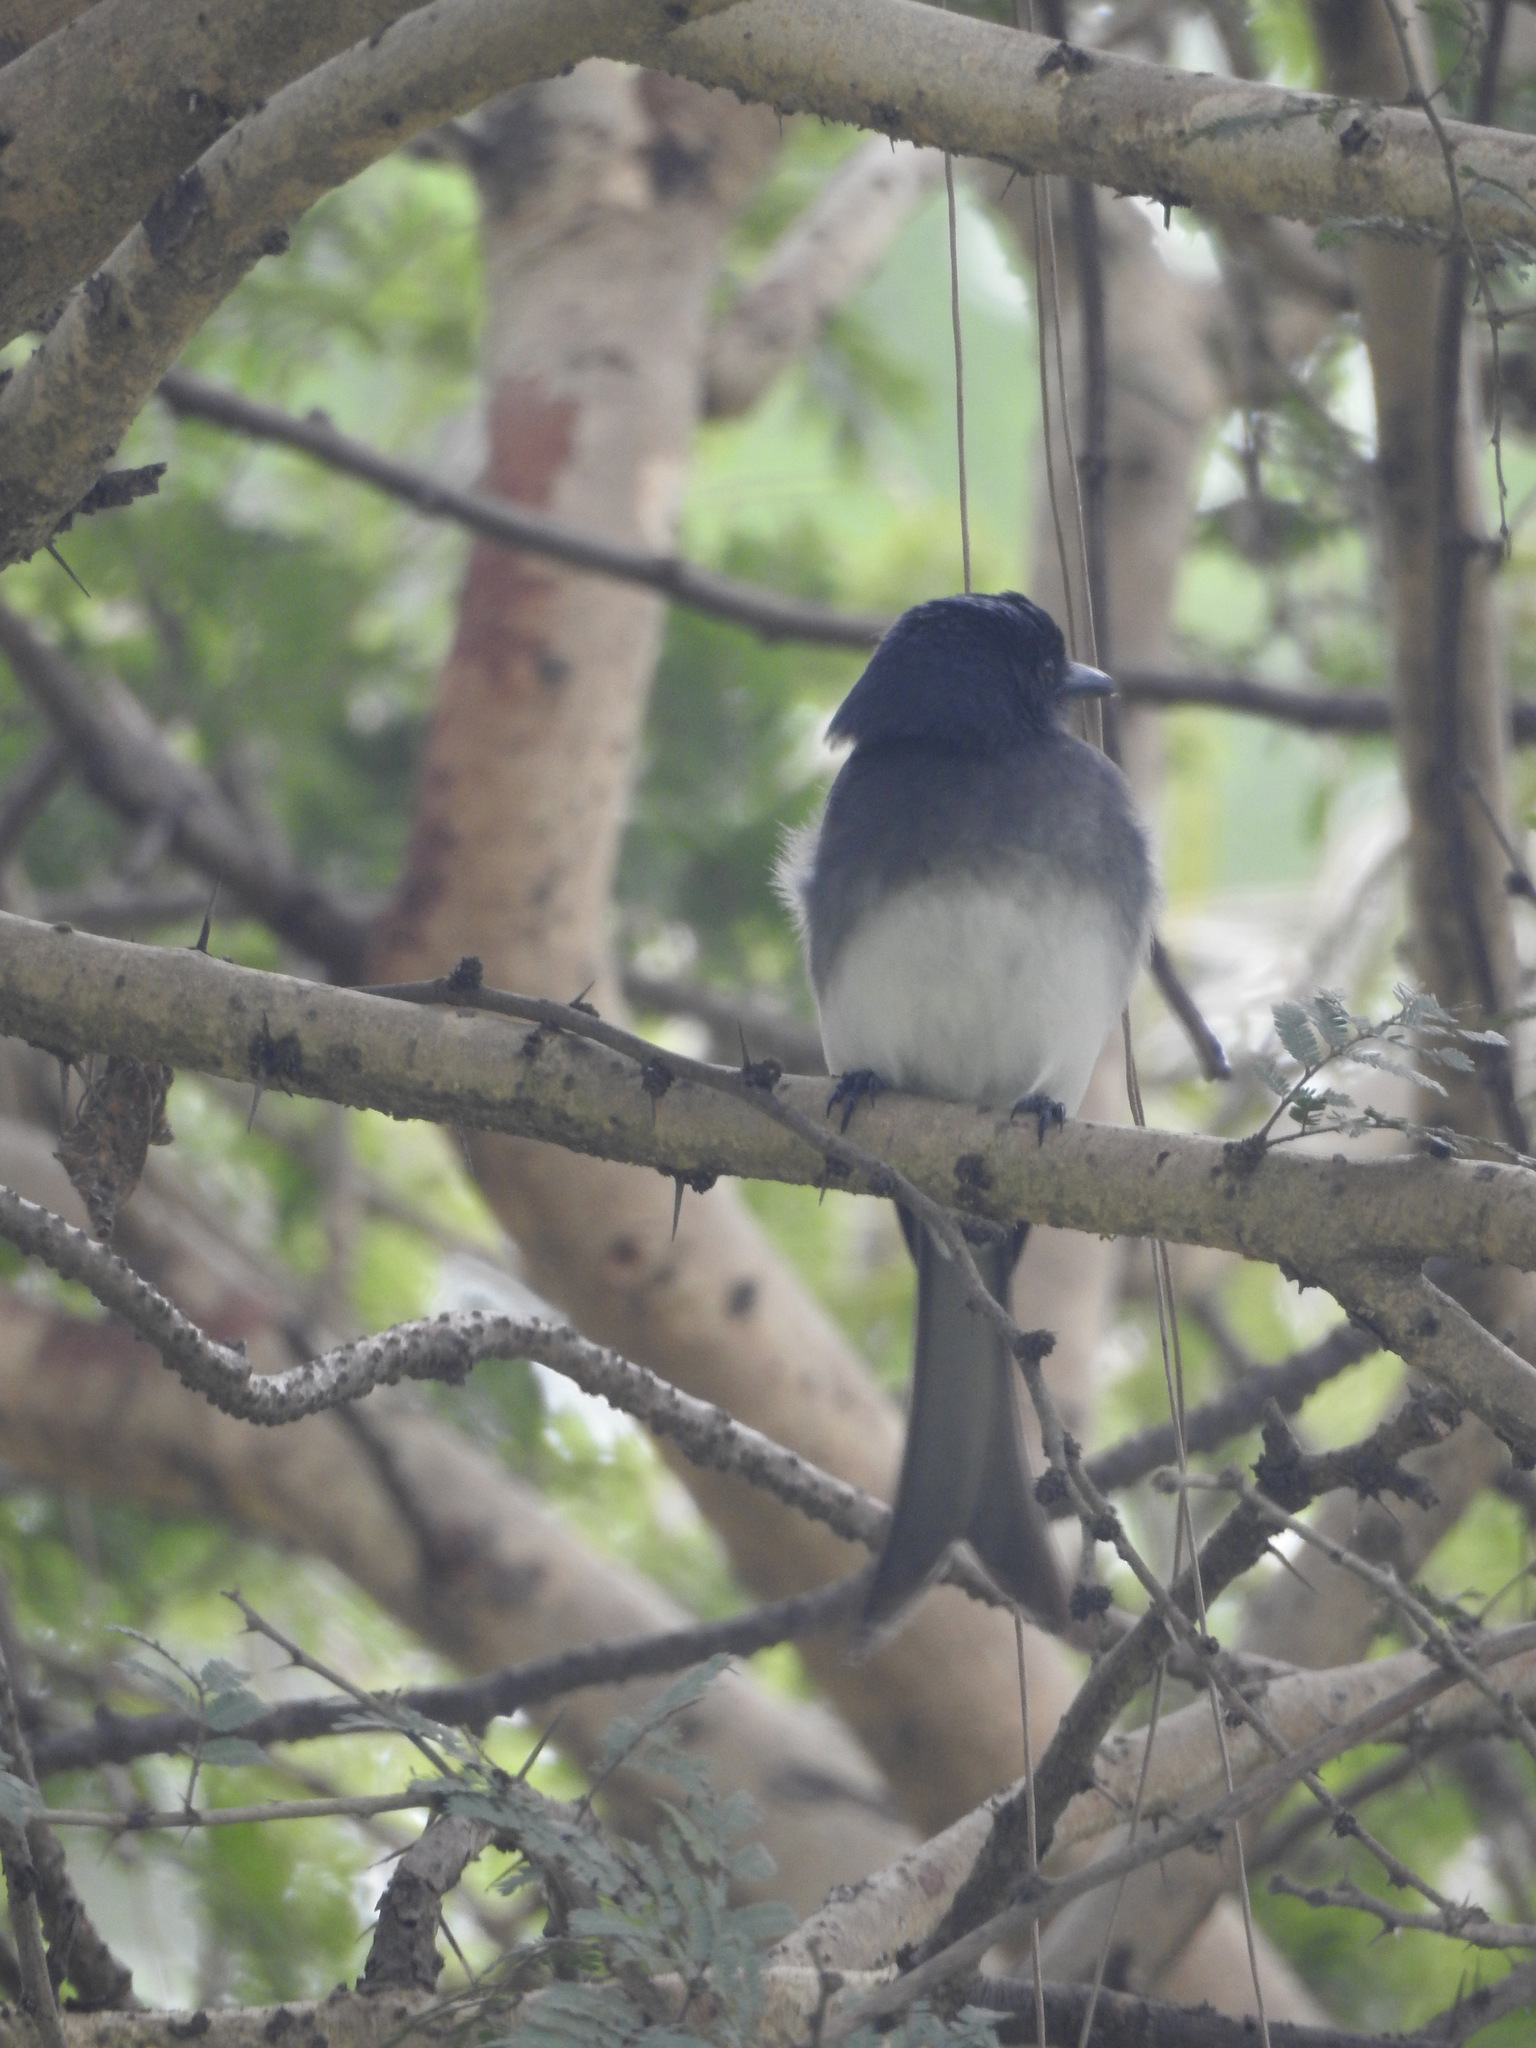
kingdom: Animalia
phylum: Chordata
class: Aves
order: Passeriformes
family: Dicruridae
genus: Dicrurus
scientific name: Dicrurus caerulescens
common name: White-bellied drongo
